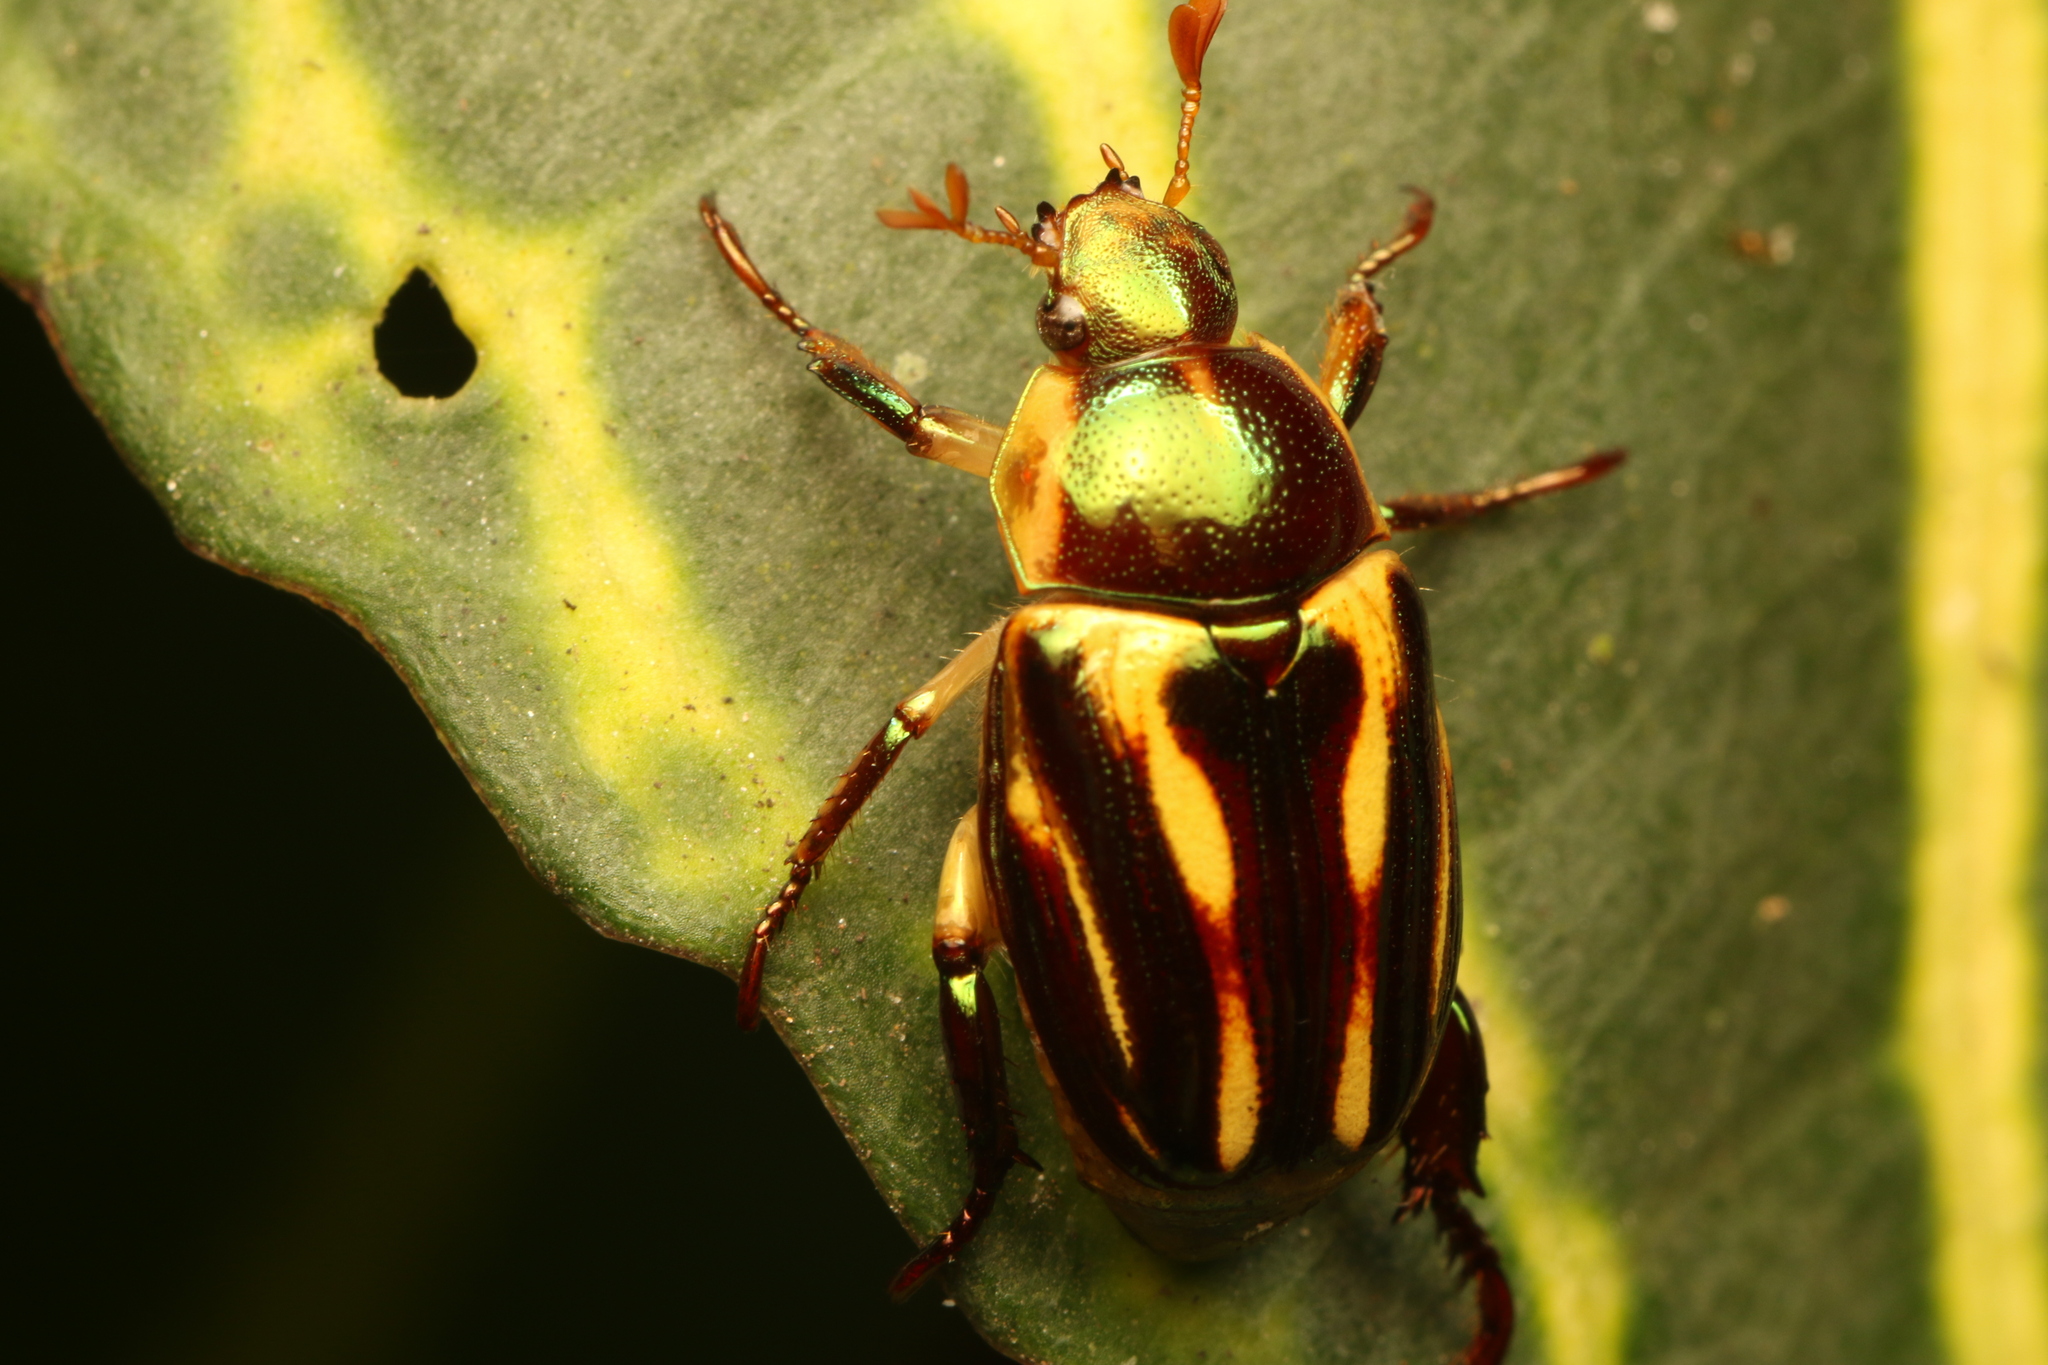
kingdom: Animalia
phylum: Arthropoda
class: Insecta
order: Coleoptera
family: Scarabaeidae
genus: Pelidnota
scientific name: Pelidnota liturella
